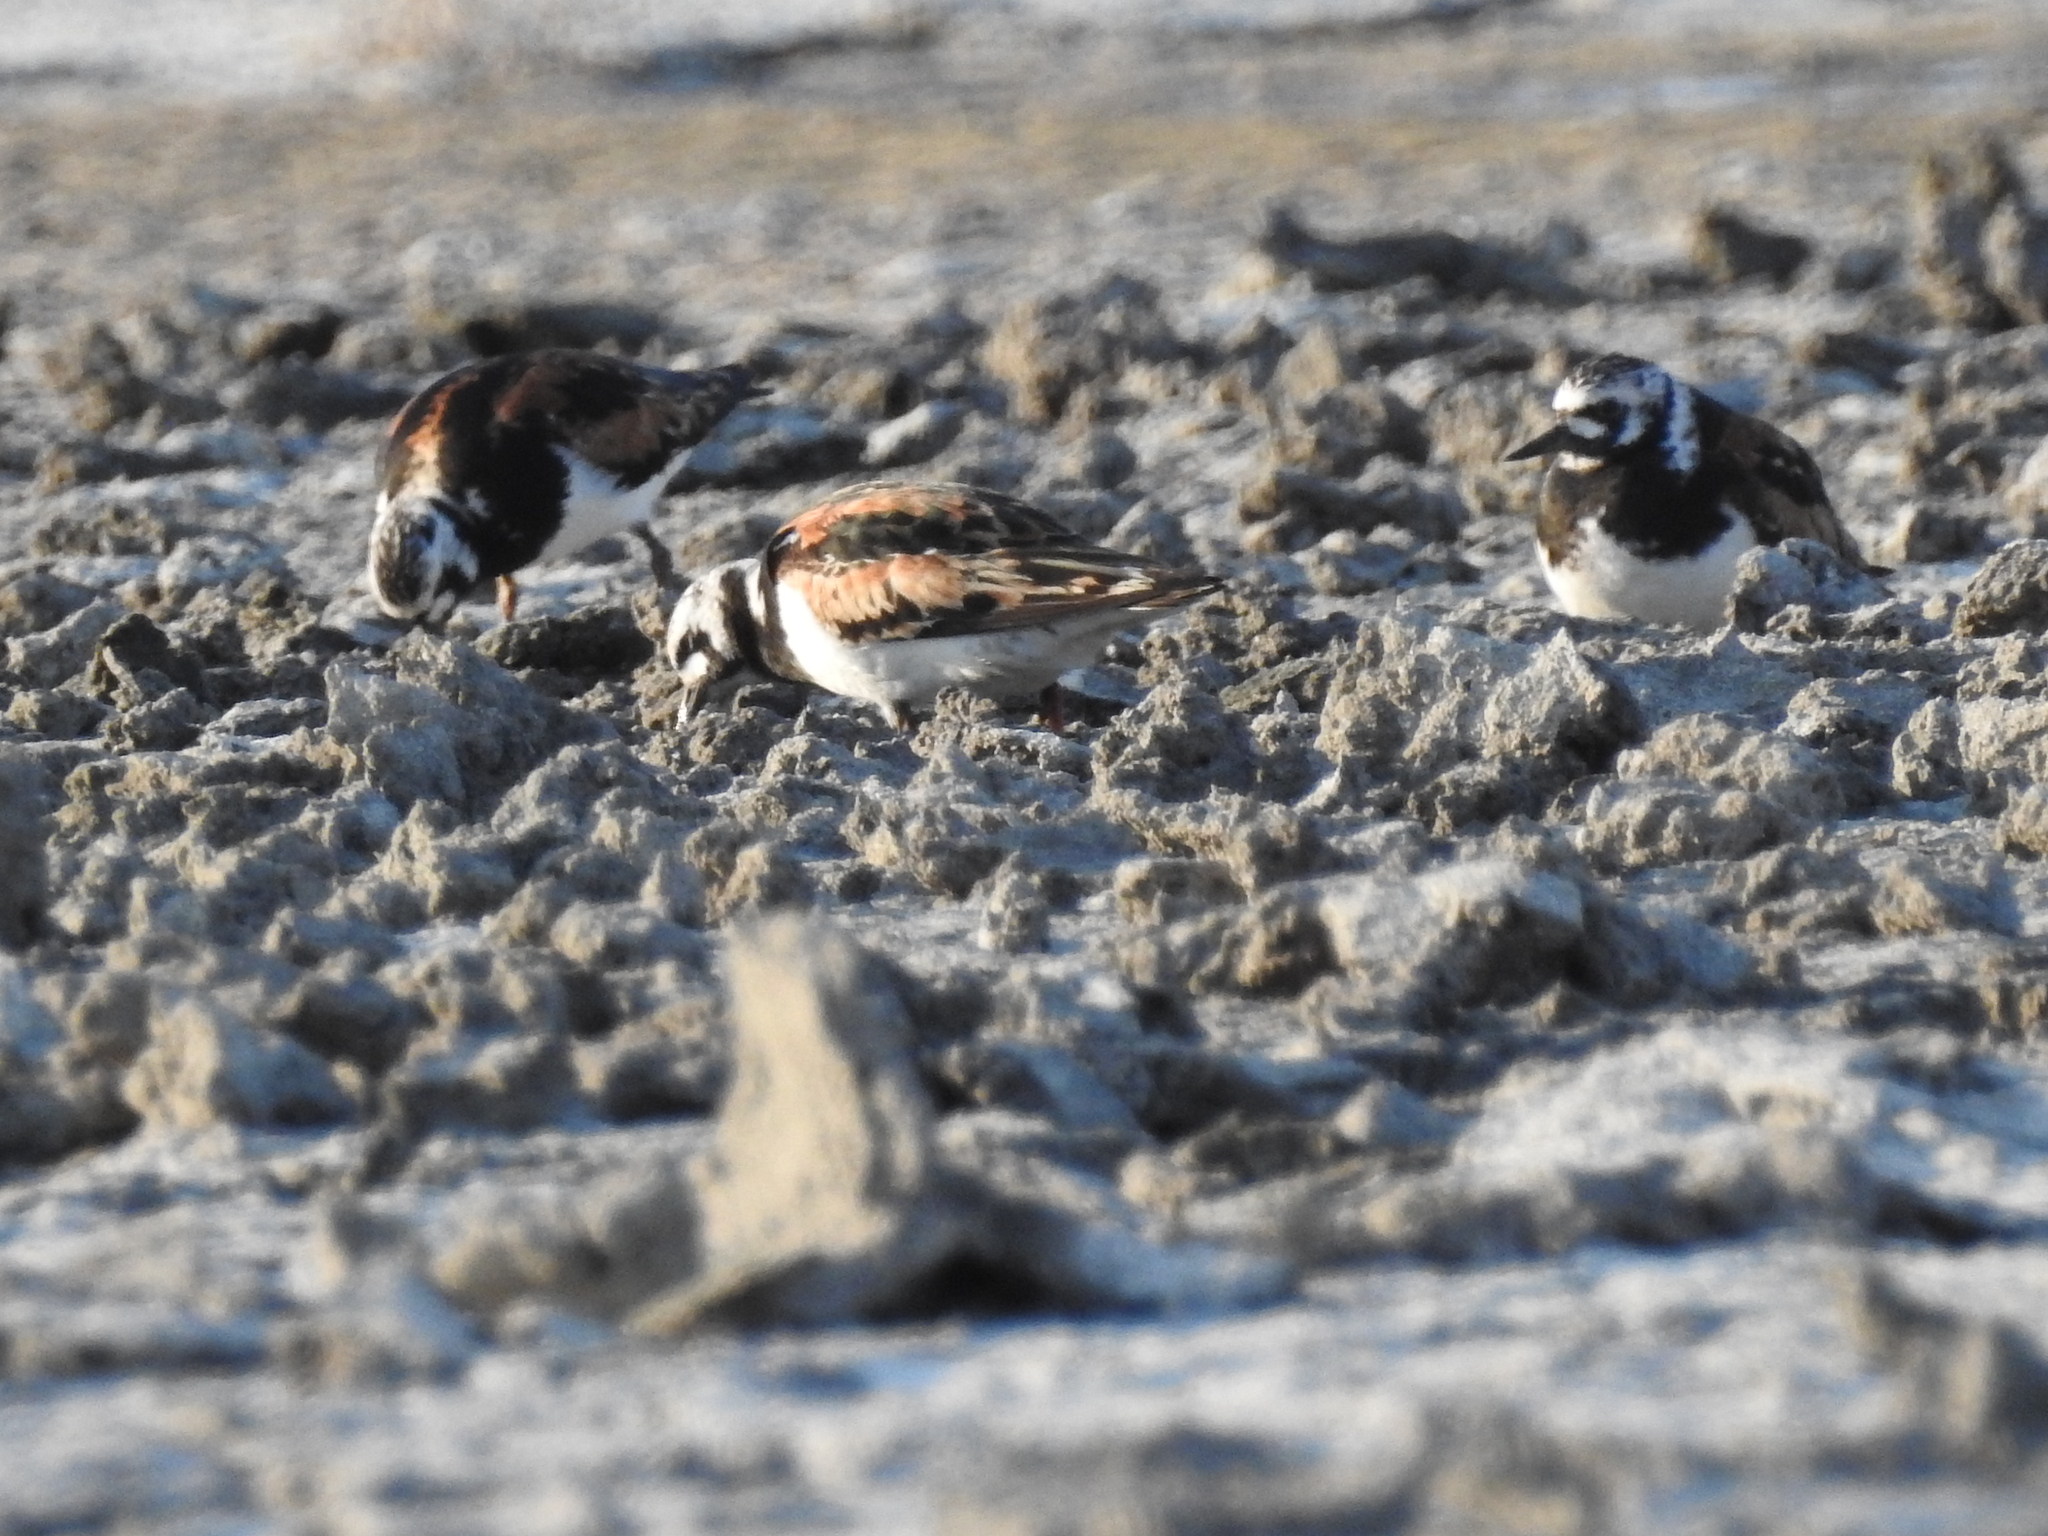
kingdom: Animalia
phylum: Chordata
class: Aves
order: Charadriiformes
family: Scolopacidae
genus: Arenaria
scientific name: Arenaria interpres
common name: Ruddy turnstone
